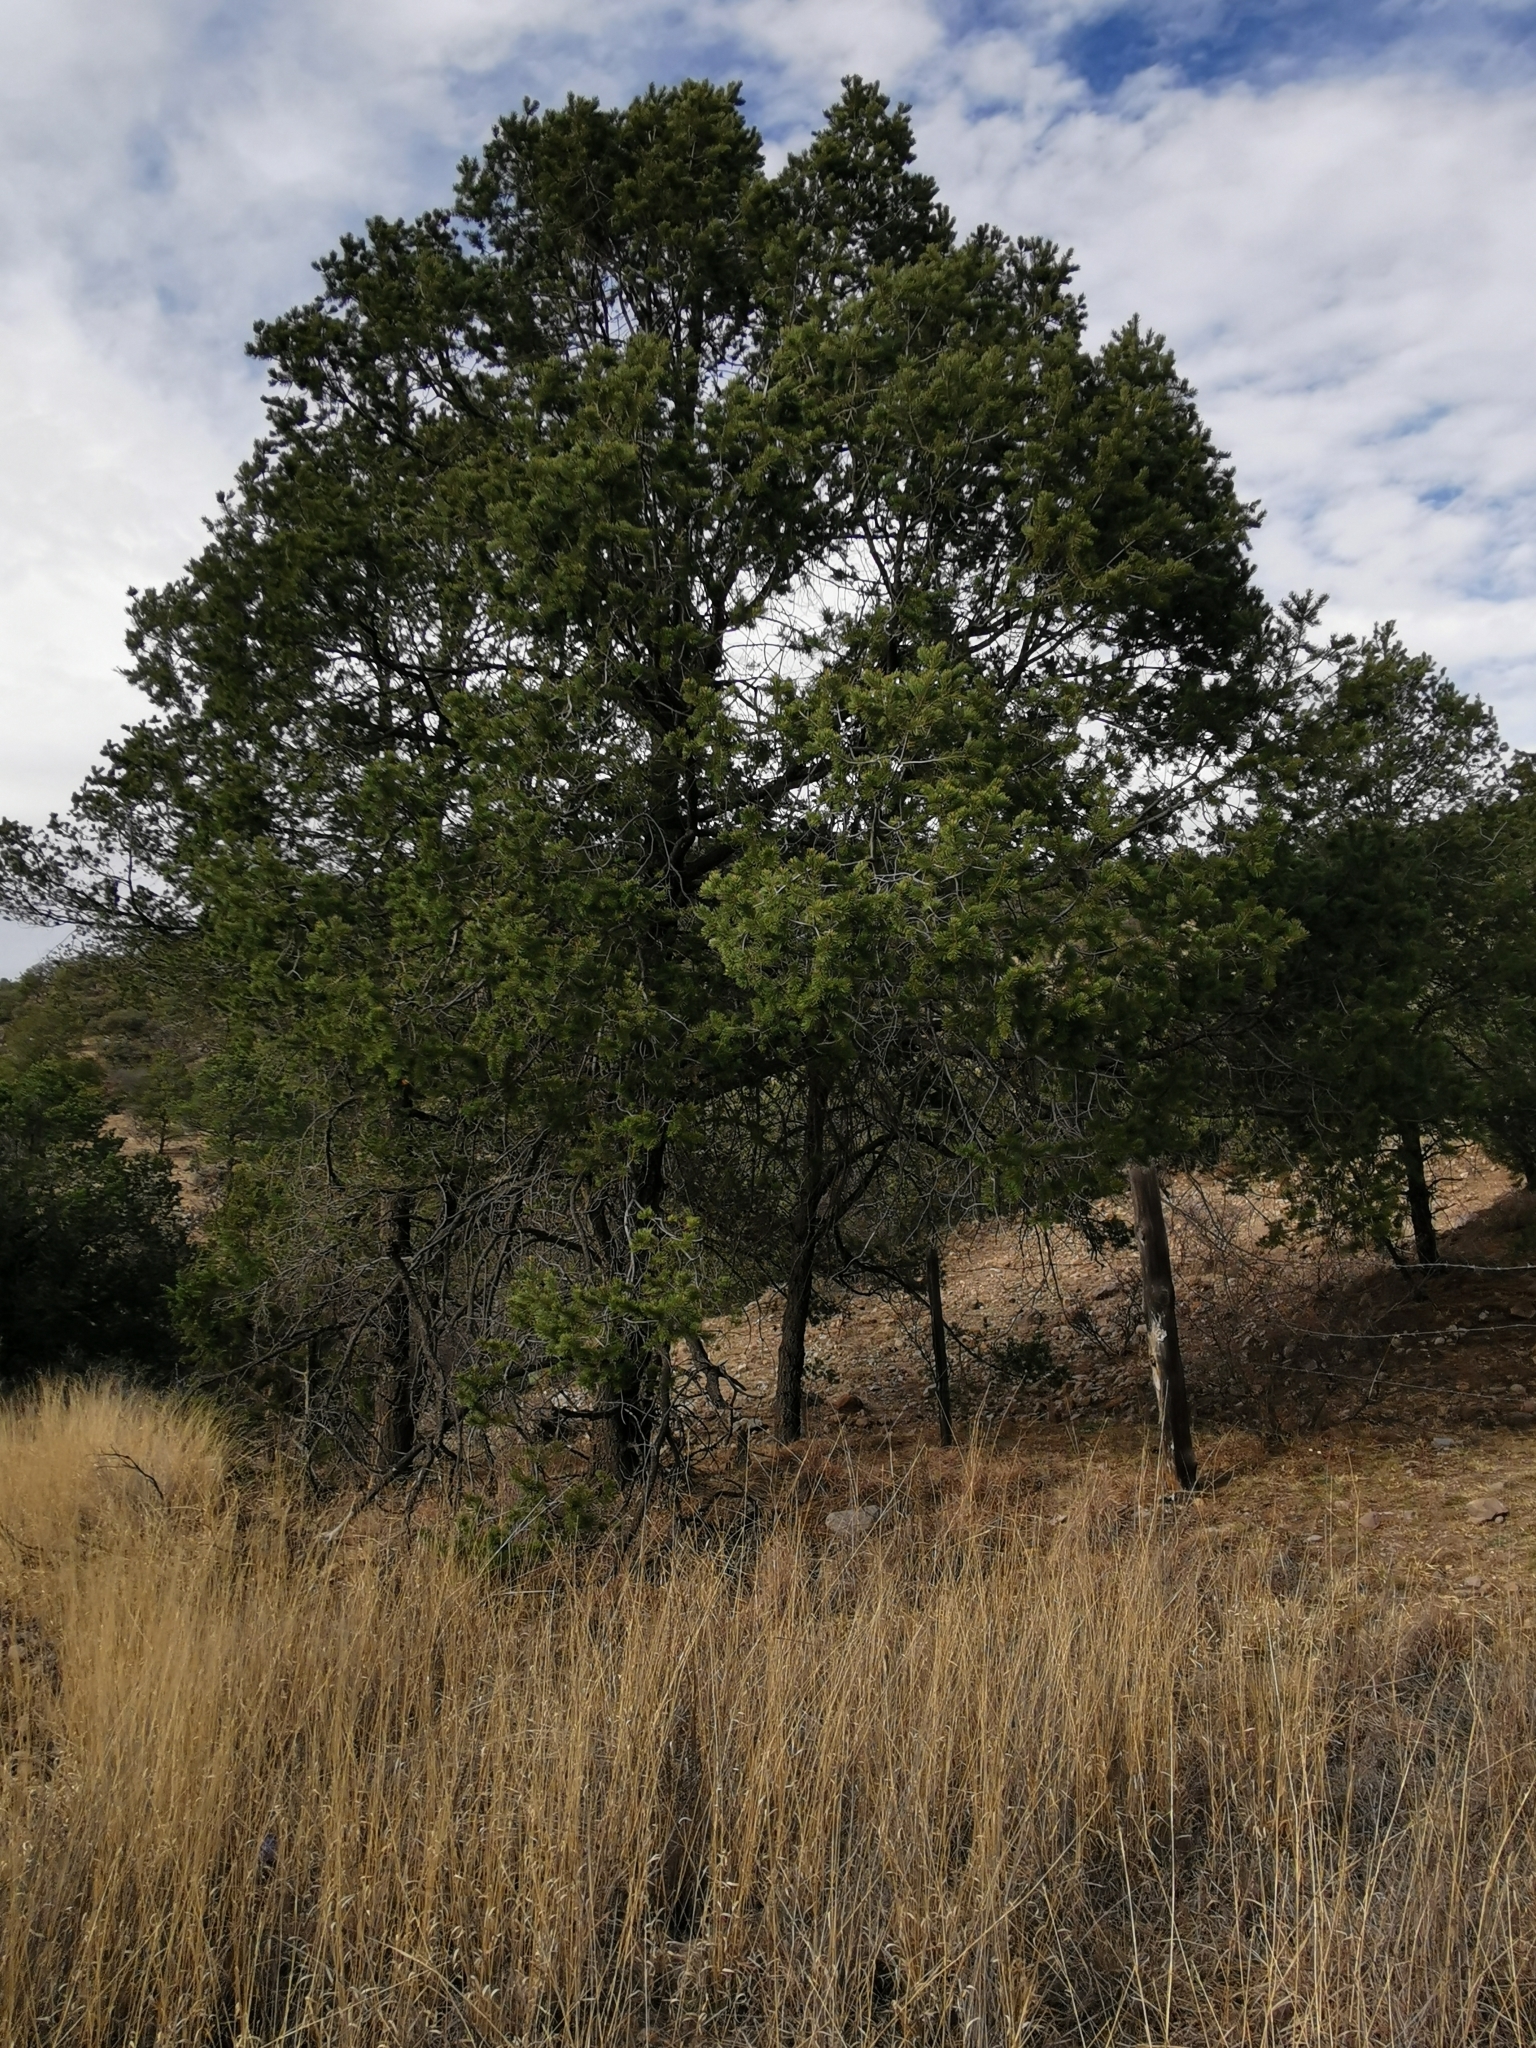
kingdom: Plantae
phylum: Tracheophyta
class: Pinopsida
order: Pinales
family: Pinaceae
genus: Pinus
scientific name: Pinus cembroides
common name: Mexican nut pine
